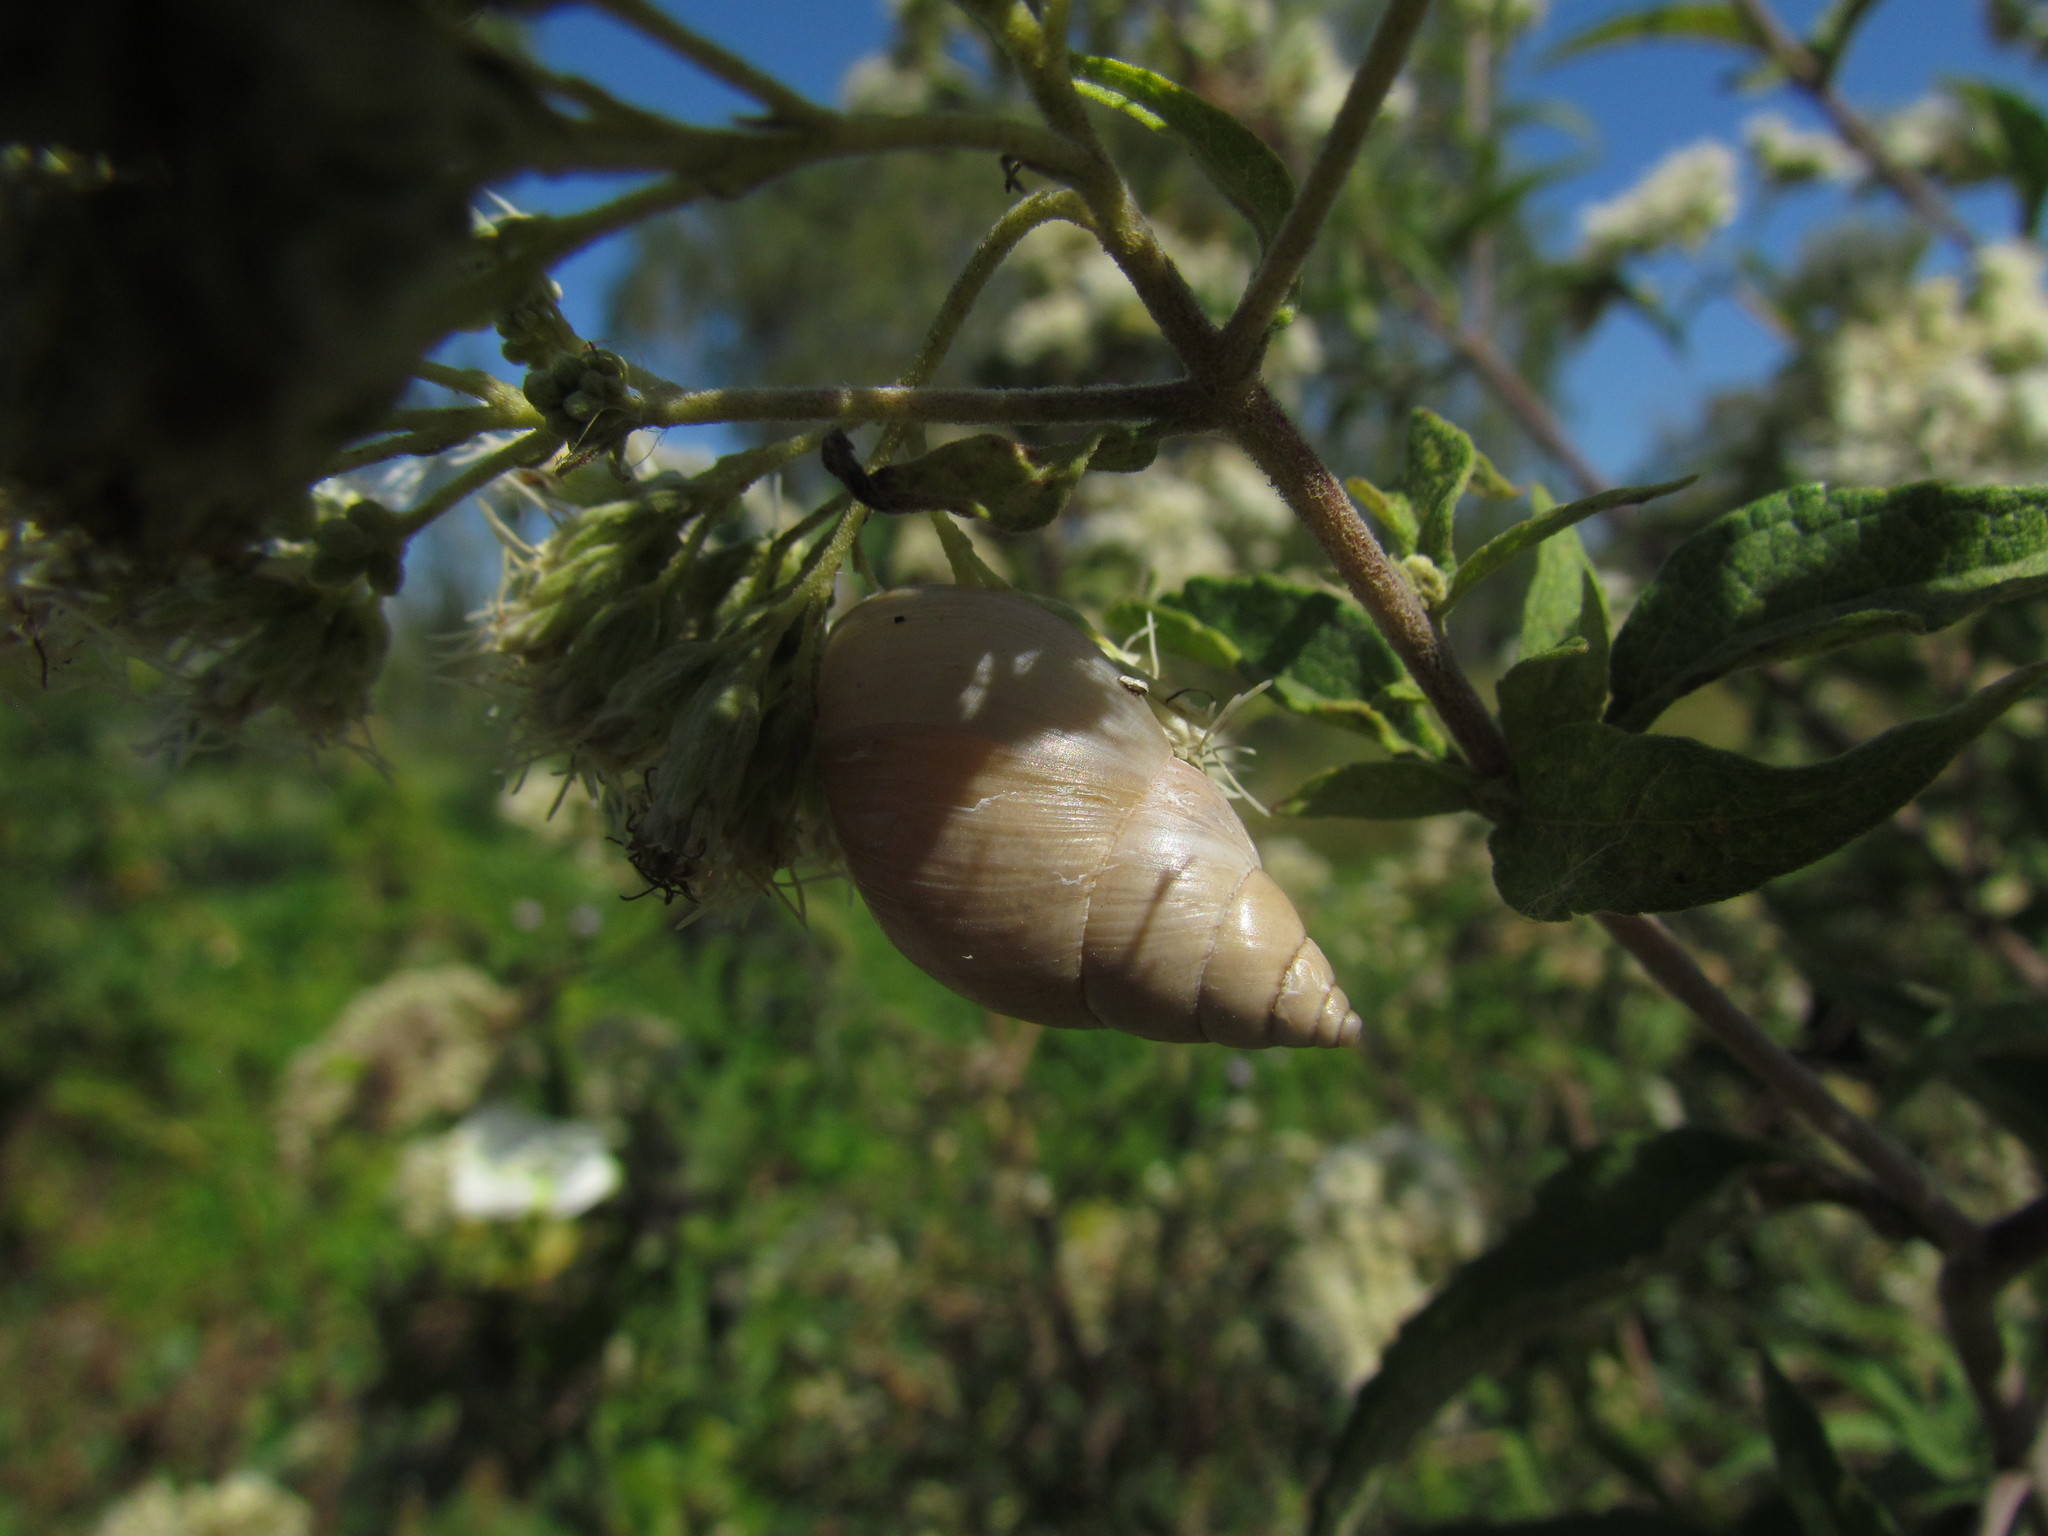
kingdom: Animalia
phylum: Mollusca
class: Gastropoda
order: Stylommatophora
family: Bulimulidae
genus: Bulimulus
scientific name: Bulimulus bonariensis
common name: Snail
